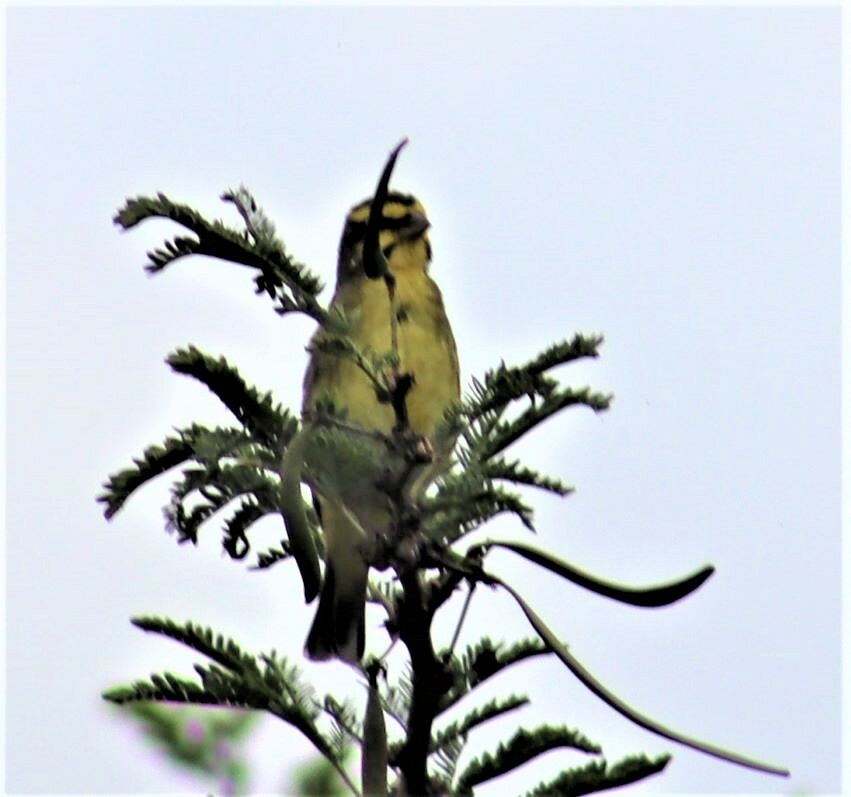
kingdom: Animalia
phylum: Chordata
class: Aves
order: Passeriformes
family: Fringillidae
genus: Crithagra
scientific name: Crithagra mozambica
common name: Yellow-fronted canary
